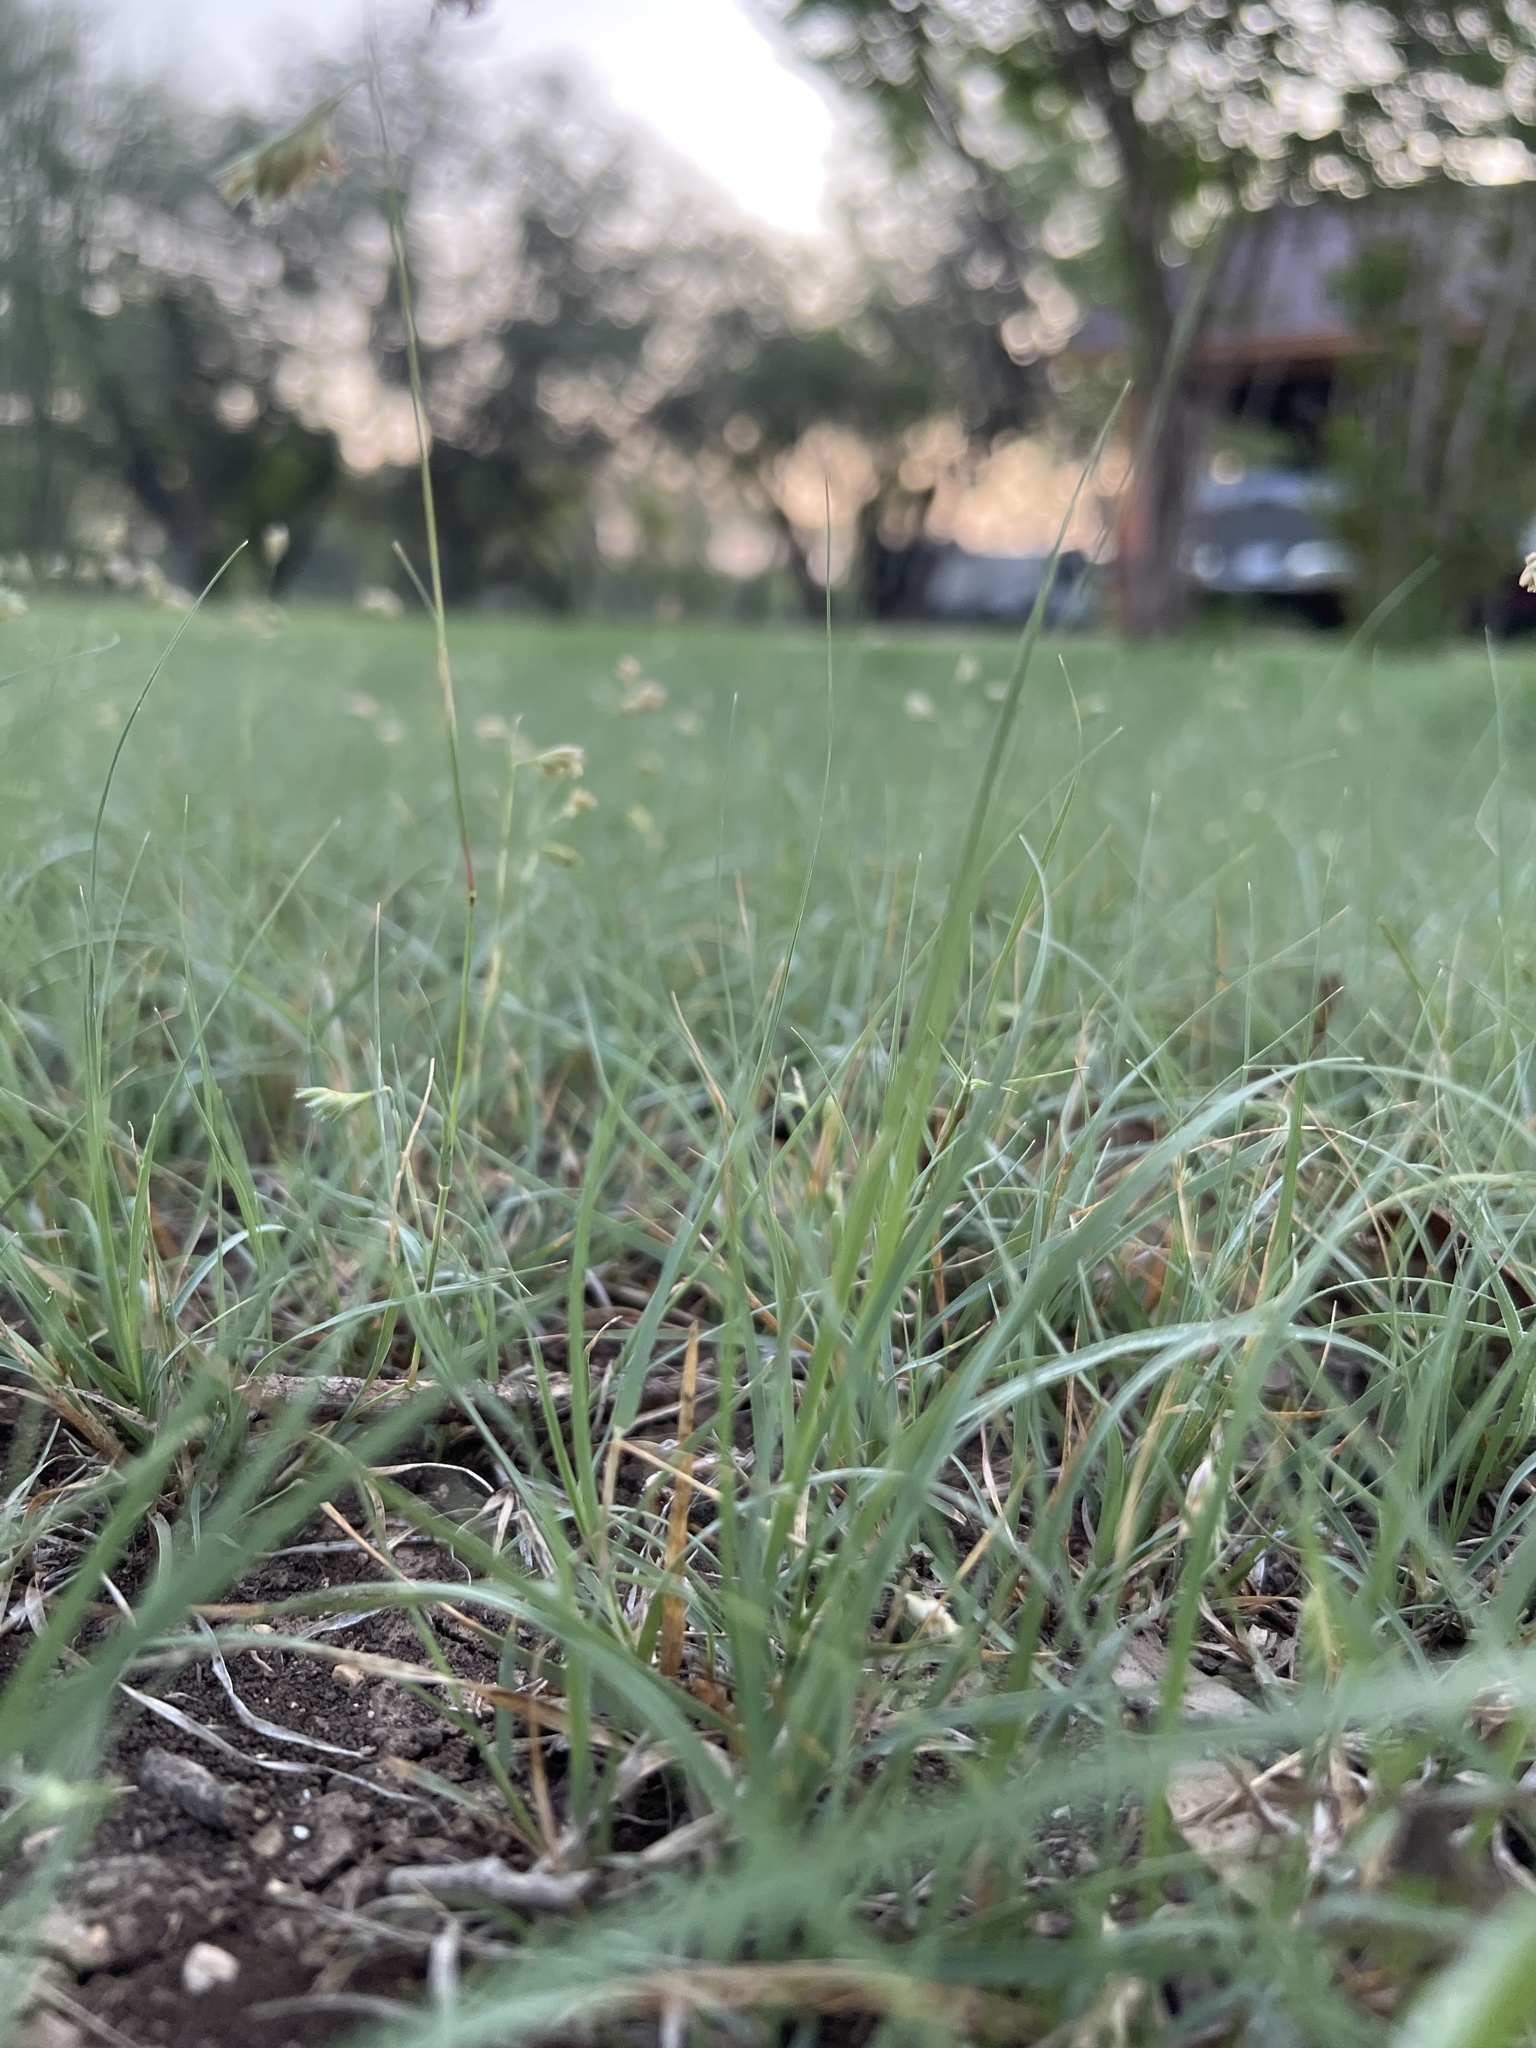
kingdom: Plantae
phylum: Tracheophyta
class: Liliopsida
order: Poales
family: Poaceae
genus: Bouteloua
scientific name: Bouteloua dactyloides
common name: Buffalo grass
